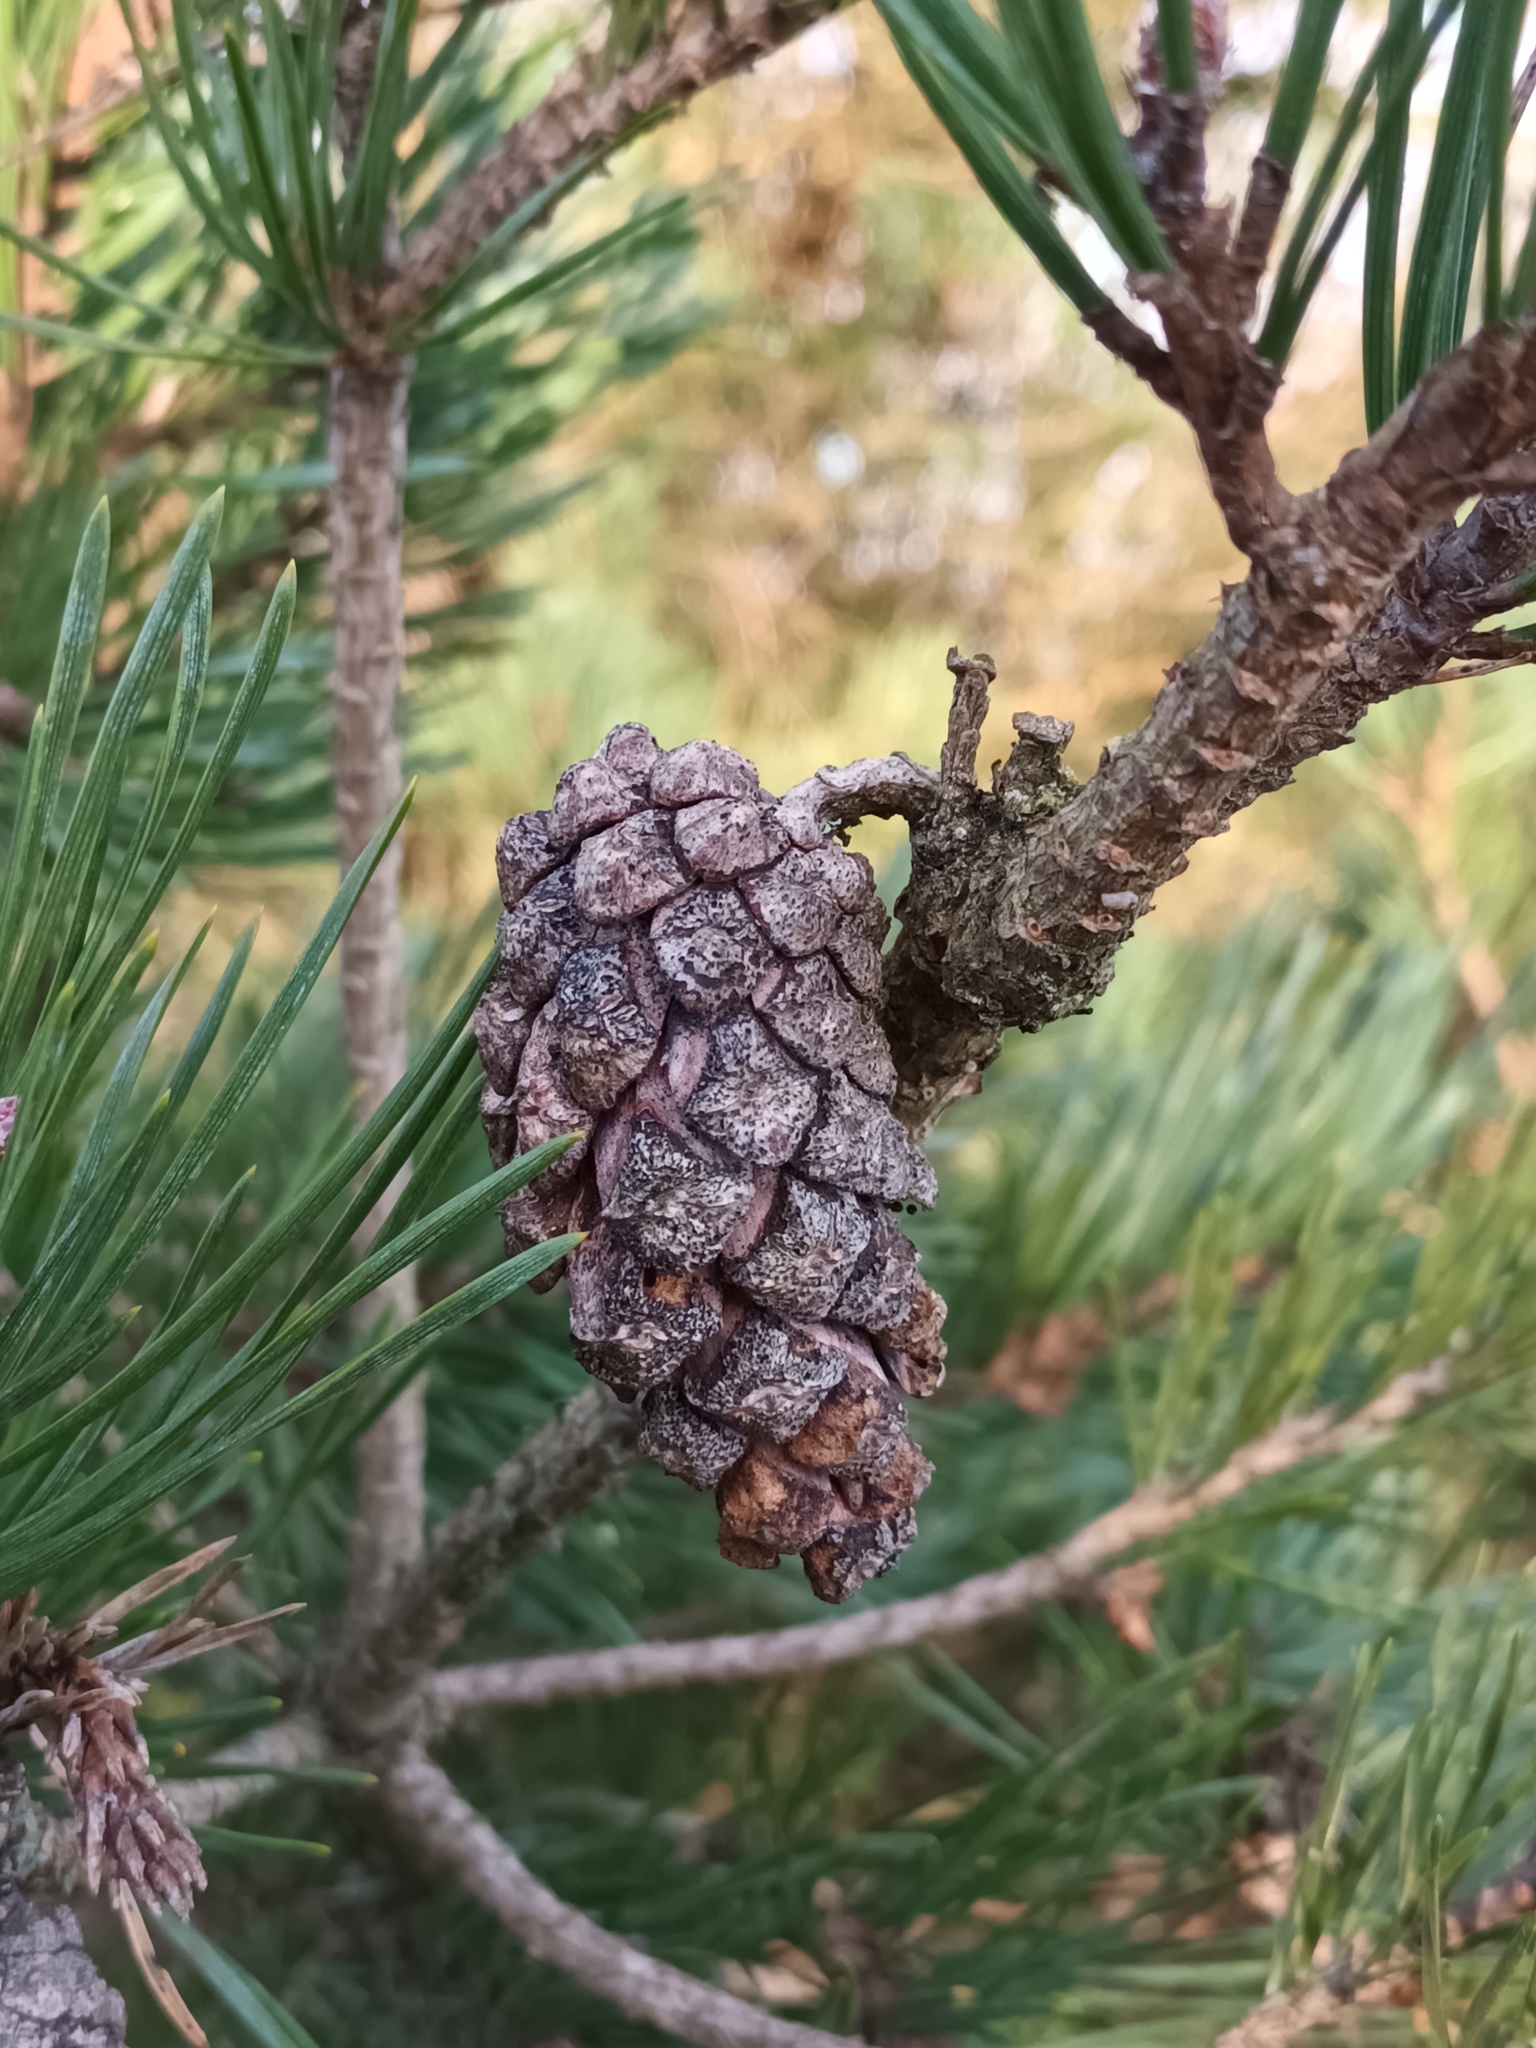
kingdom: Plantae
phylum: Tracheophyta
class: Pinopsida
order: Pinales
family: Pinaceae
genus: Pinus
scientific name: Pinus sylvestris
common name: Scots pine
